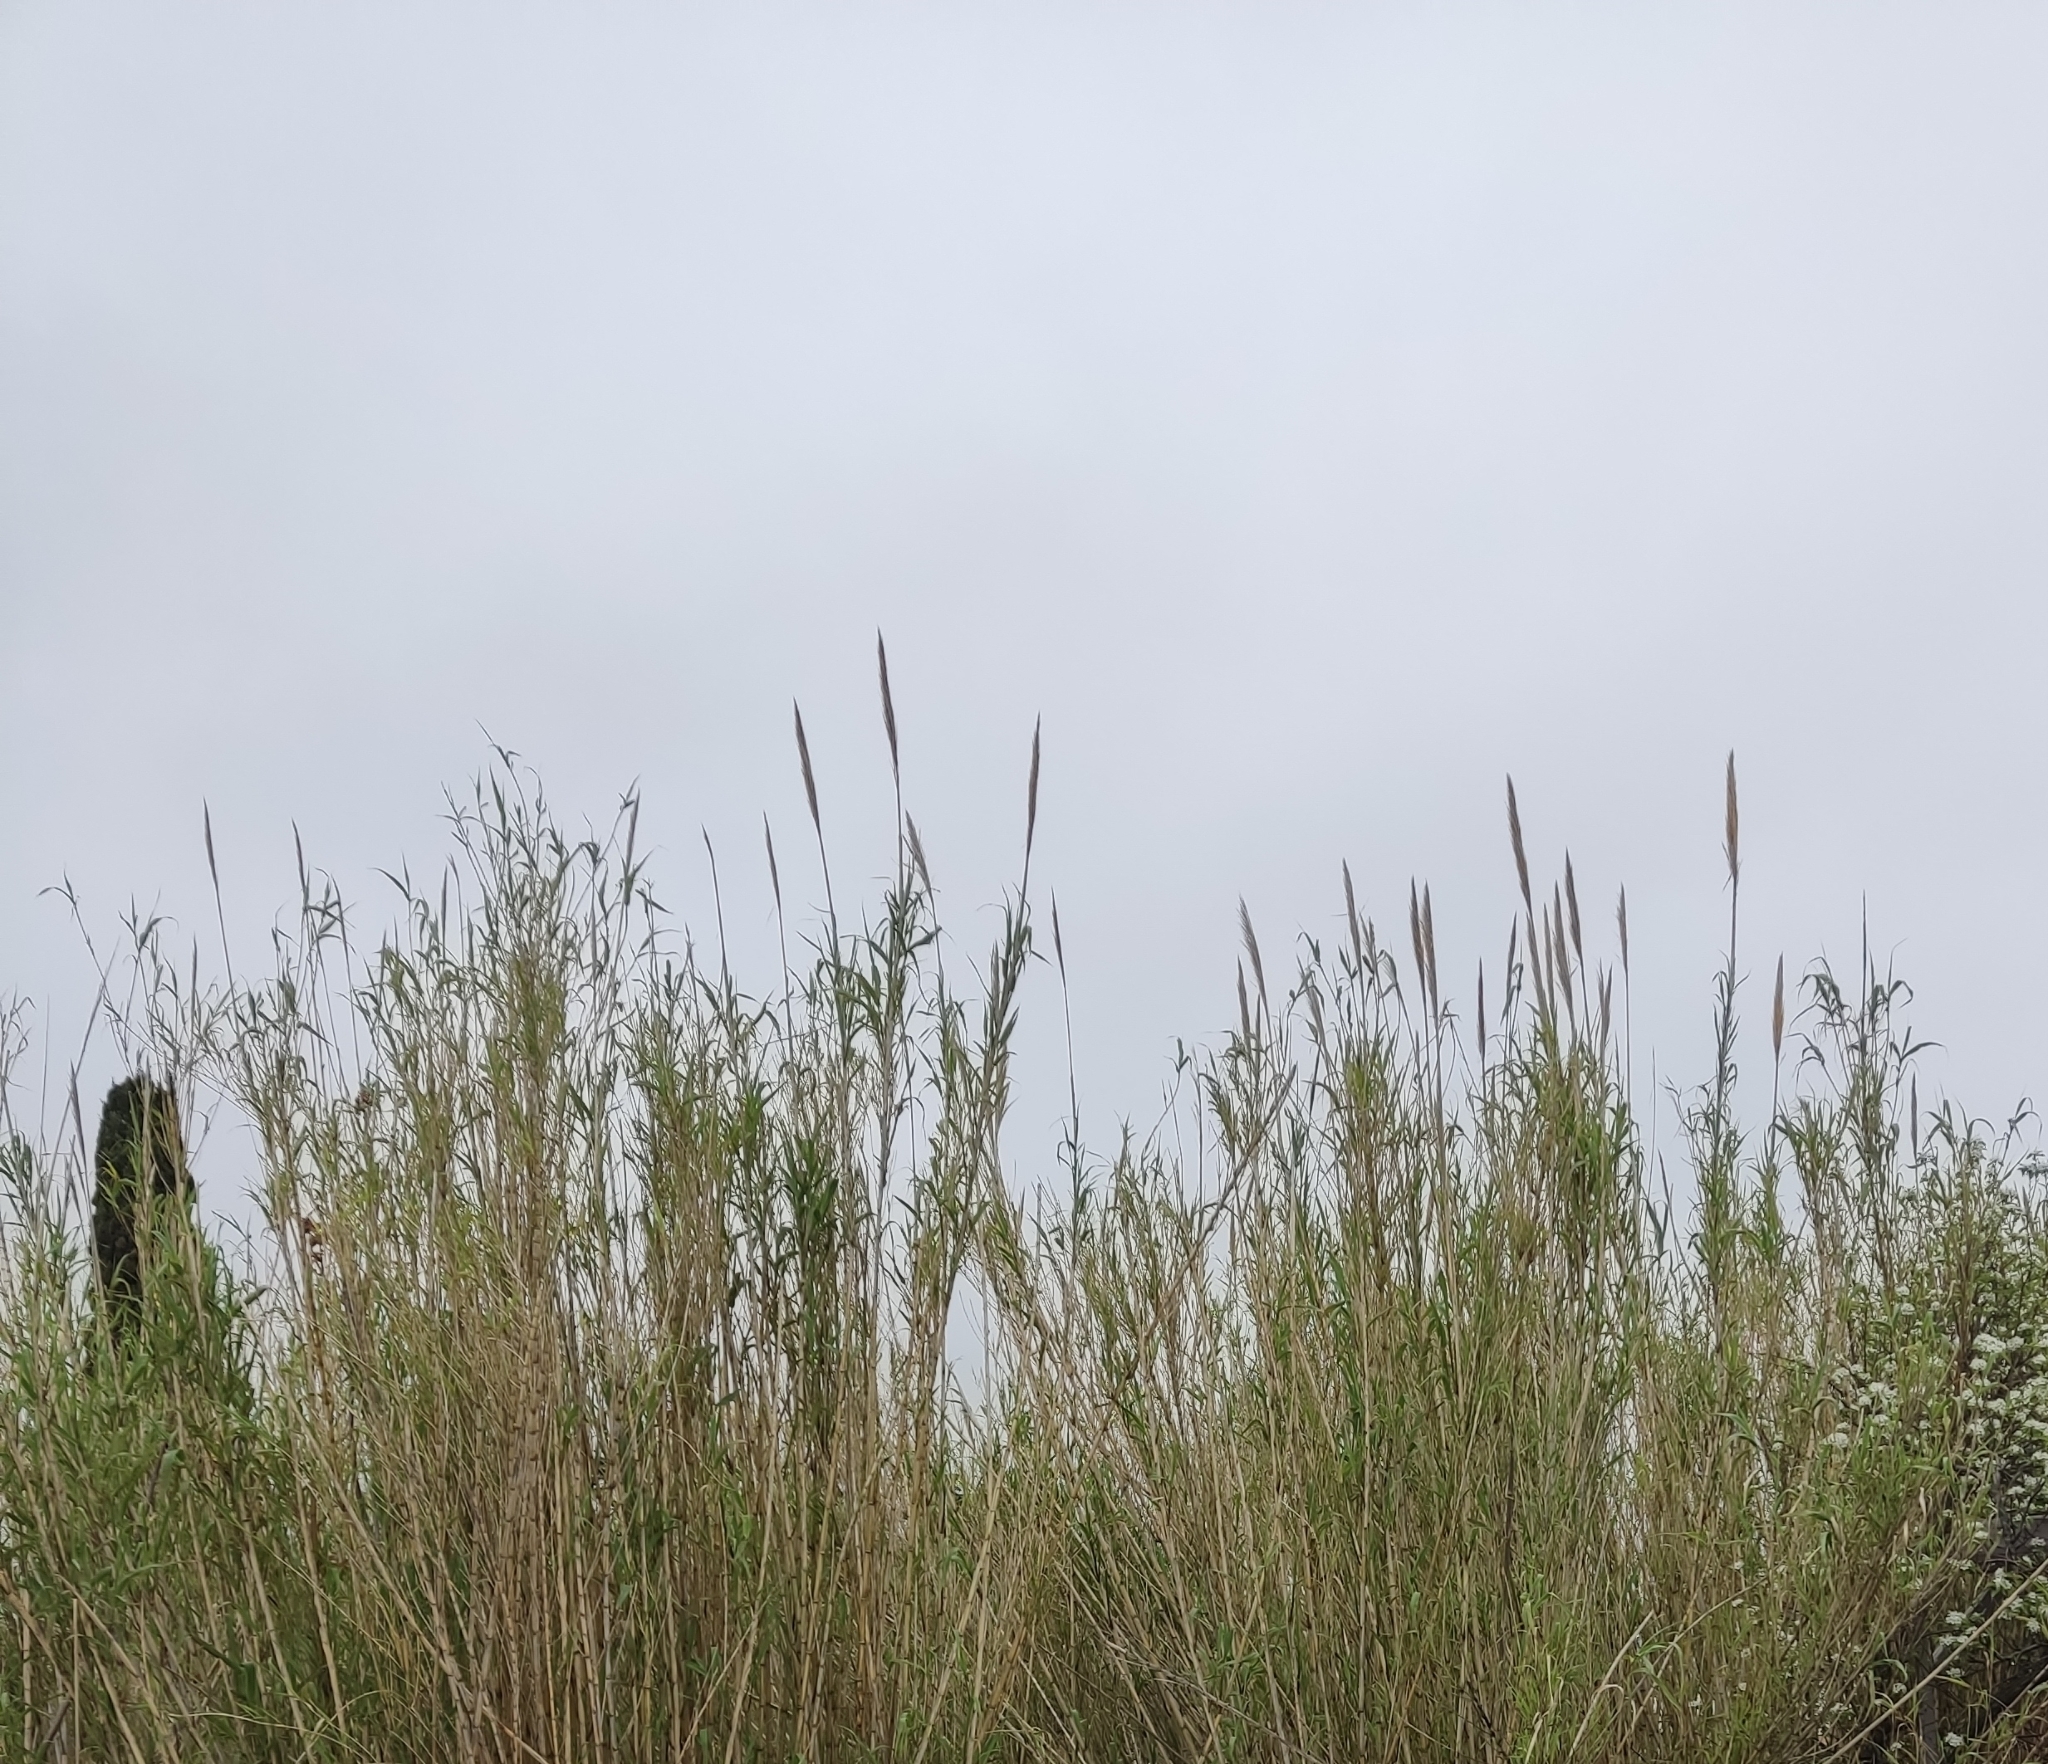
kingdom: Plantae
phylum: Tracheophyta
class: Liliopsida
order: Poales
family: Poaceae
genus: Arundo
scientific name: Arundo donax
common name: Giant reed
